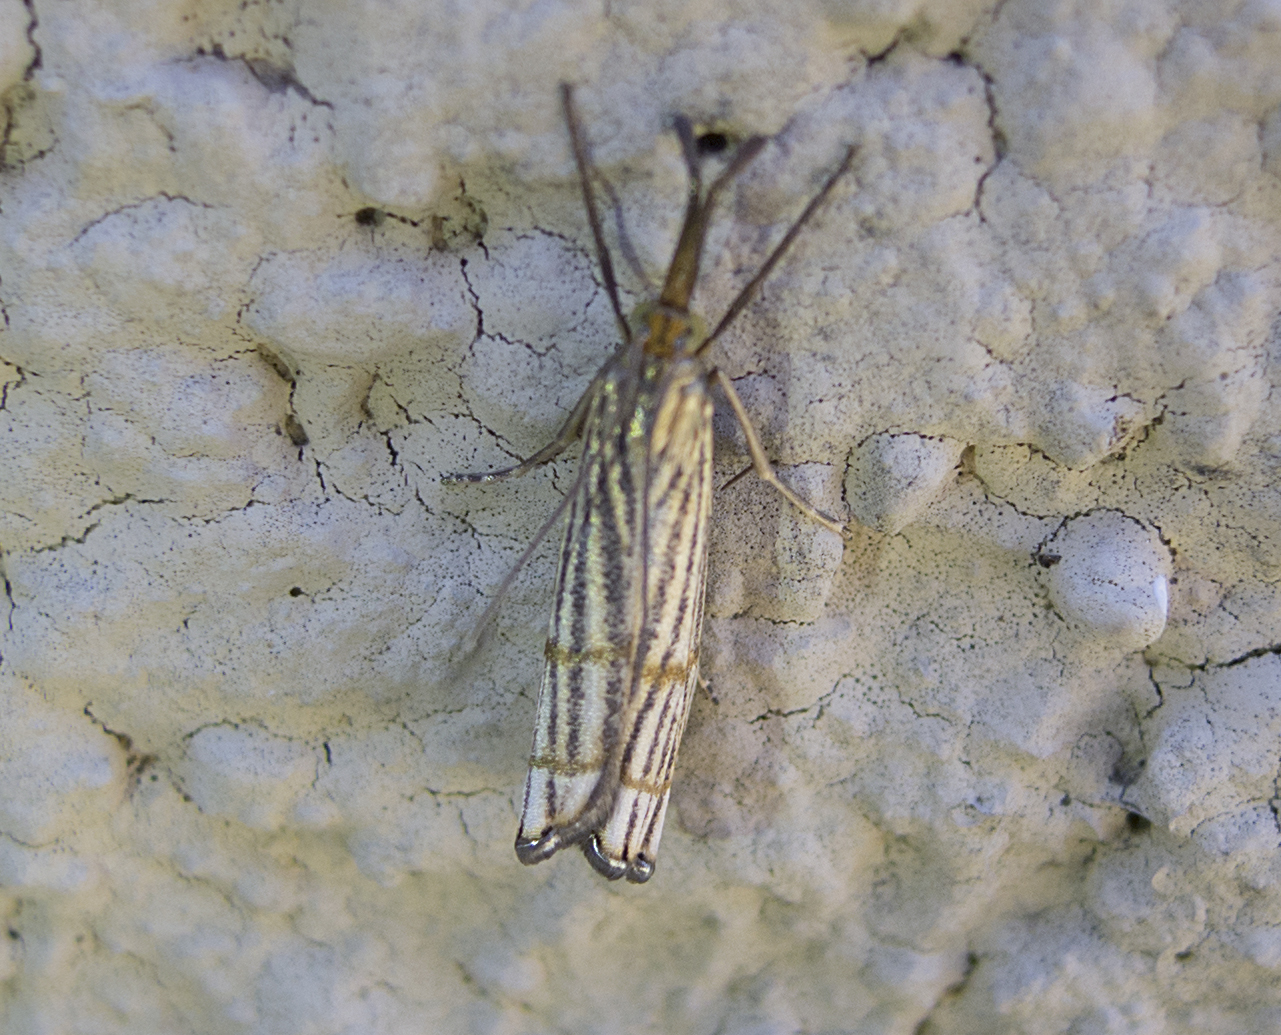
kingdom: Animalia
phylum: Arthropoda
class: Insecta
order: Lepidoptera
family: Crambidae
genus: Chrysocrambus
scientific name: Chrysocrambus linetella
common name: Orange-bar grass-veneer
